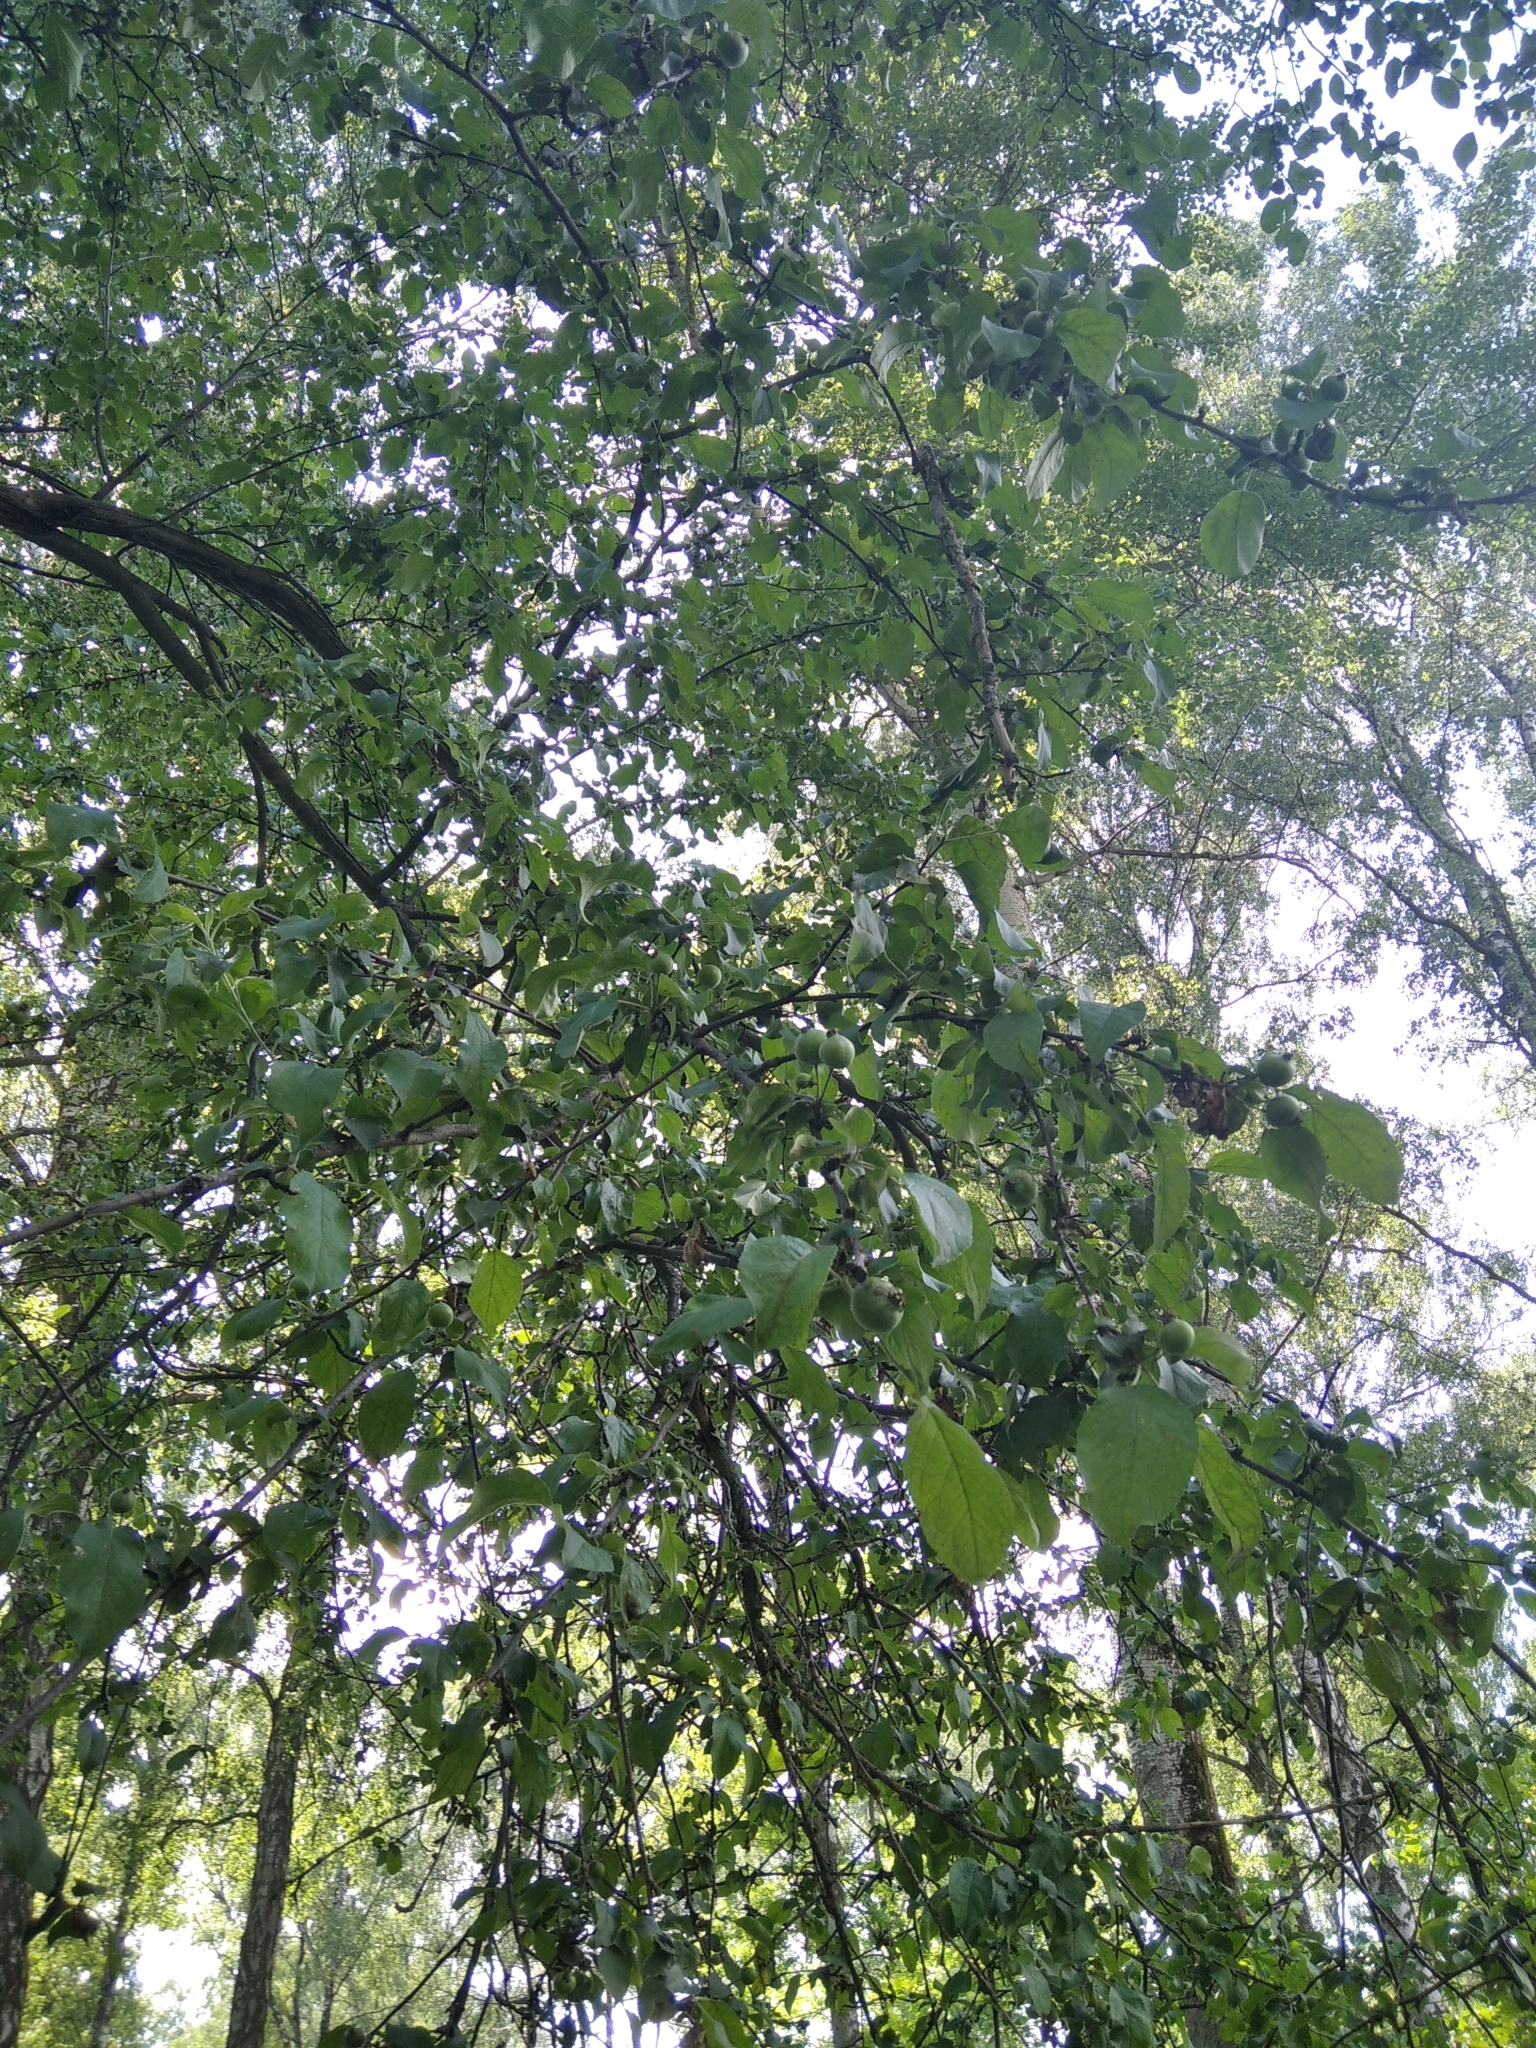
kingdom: Plantae
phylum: Tracheophyta
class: Magnoliopsida
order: Rosales
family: Rosaceae
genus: Malus
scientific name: Malus sylvestris
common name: Crab apple
